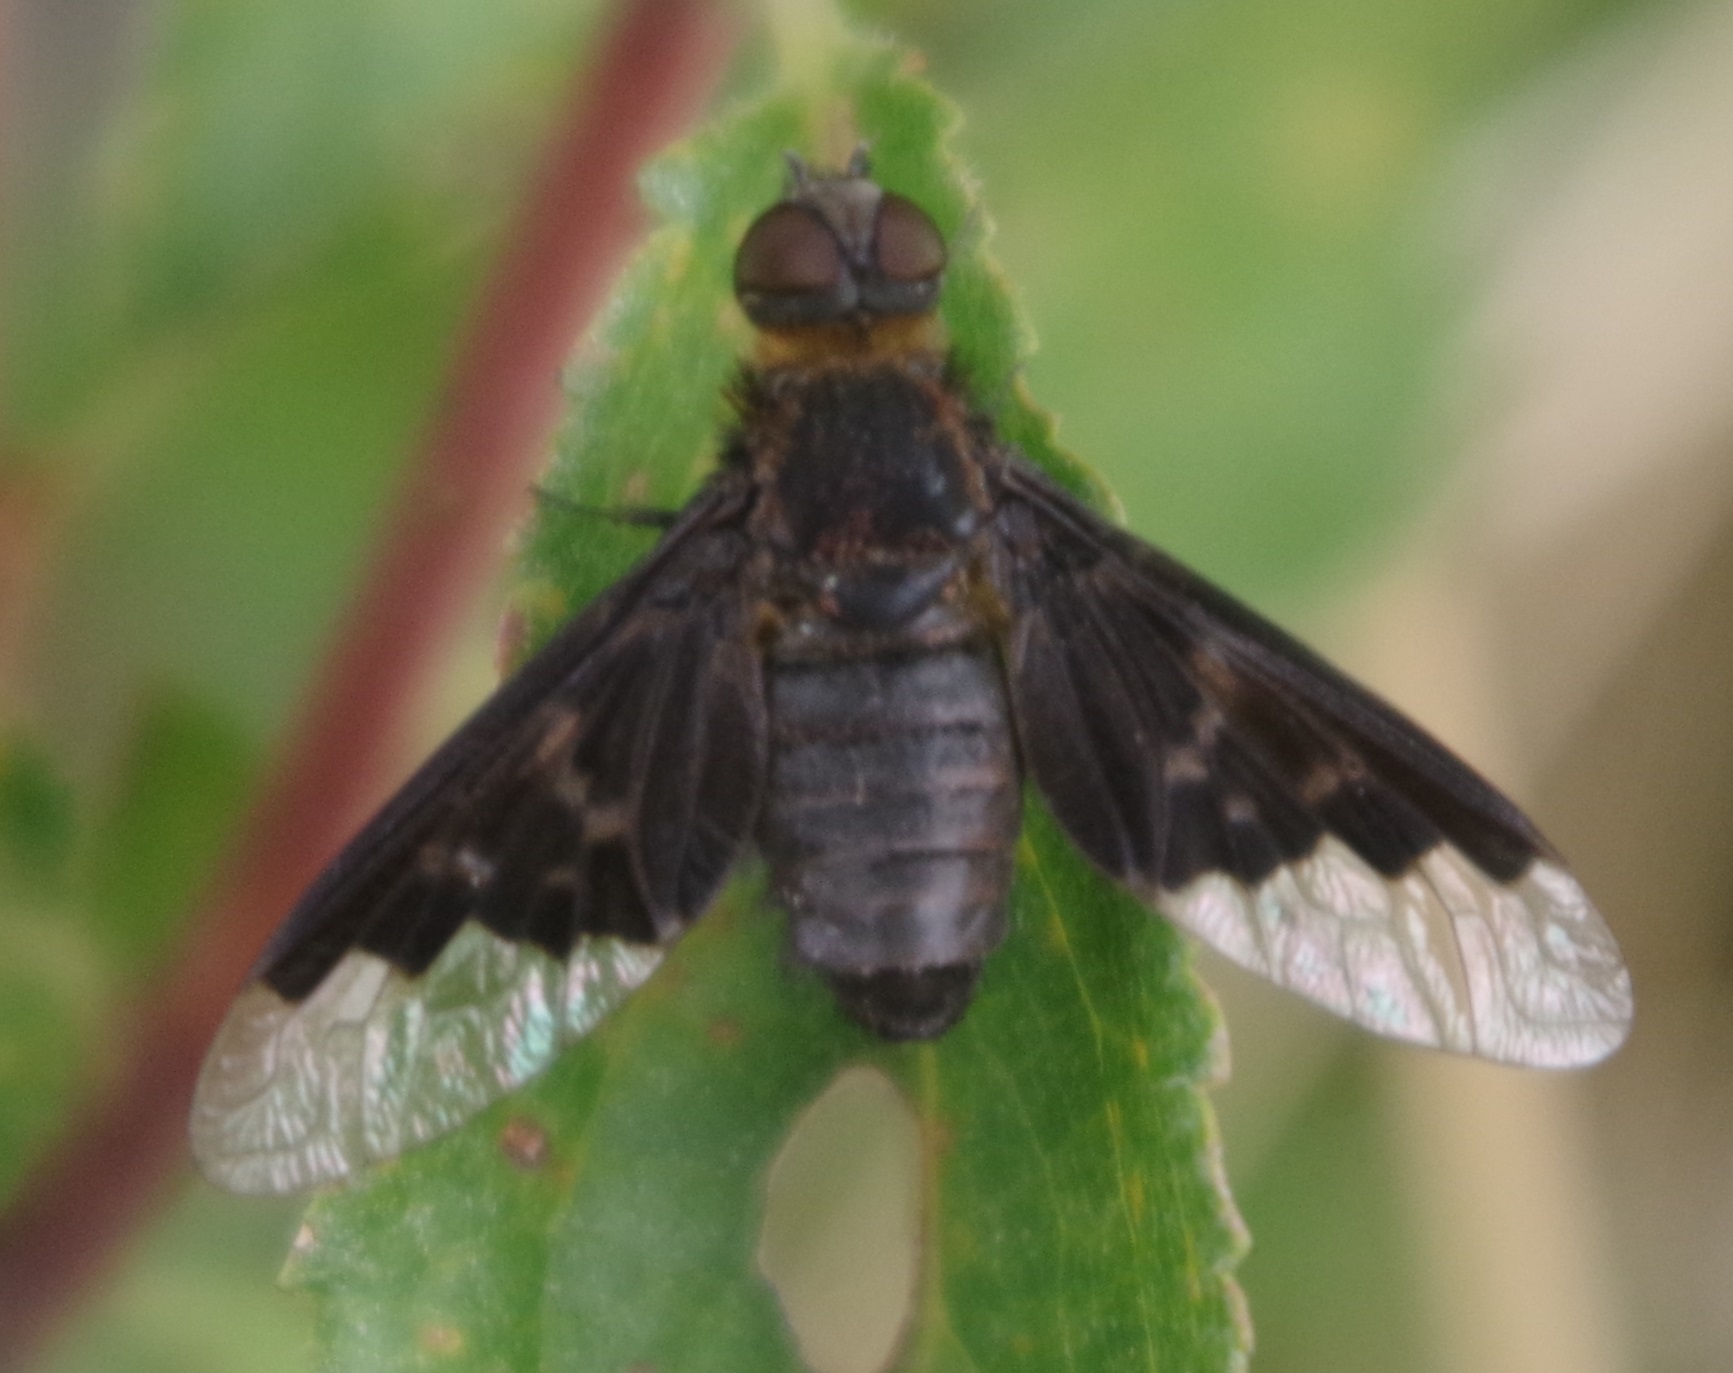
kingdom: Animalia
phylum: Arthropoda
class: Insecta
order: Diptera
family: Bombyliidae
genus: Hemipenthes
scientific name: Hemipenthes morio
